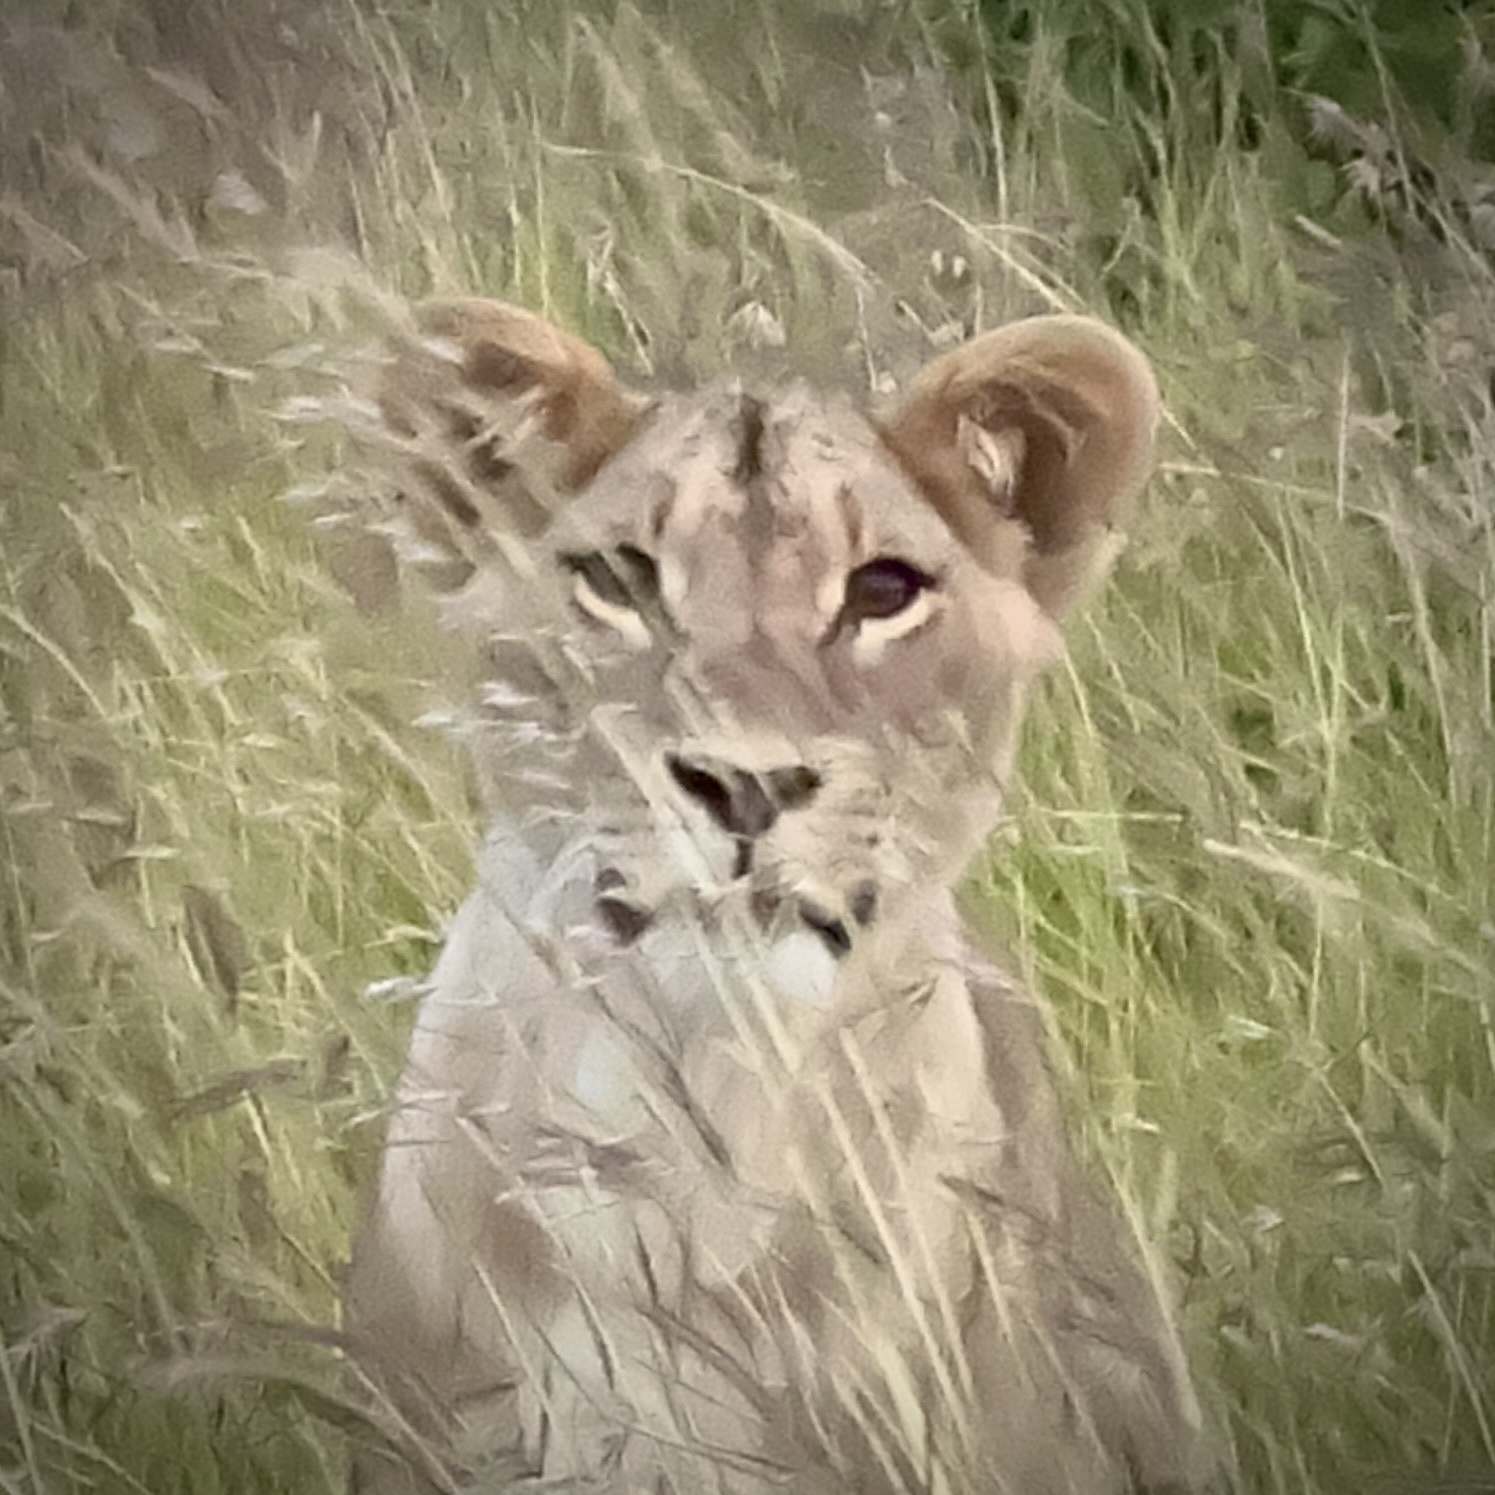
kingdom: Animalia
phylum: Chordata
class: Mammalia
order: Carnivora
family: Felidae
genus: Panthera
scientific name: Panthera leo
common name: Lion
